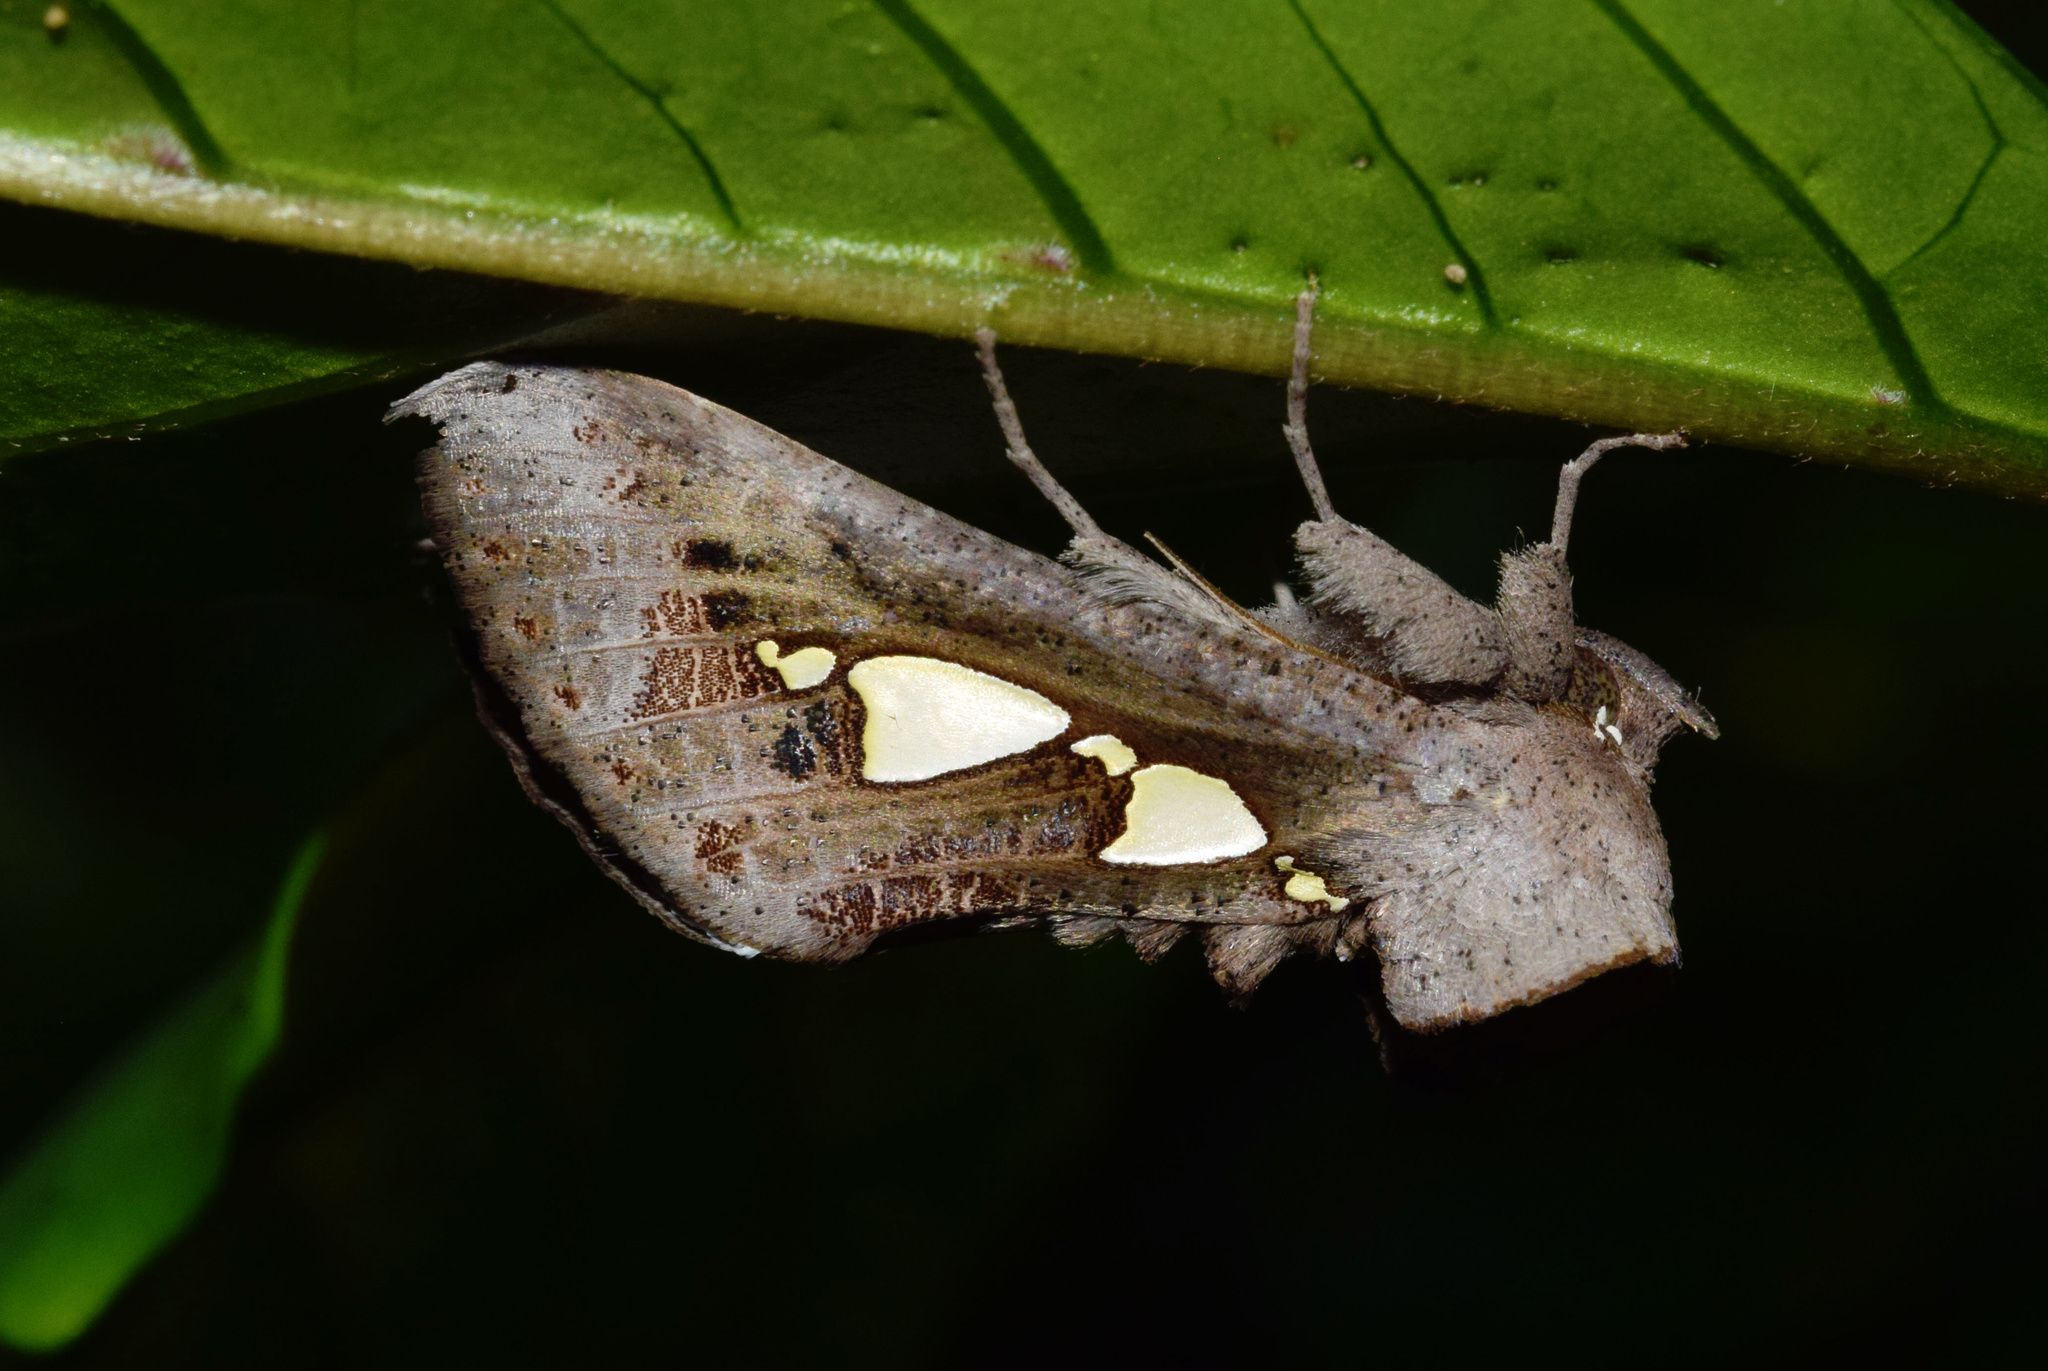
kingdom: Animalia
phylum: Arthropoda
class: Insecta
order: Lepidoptera
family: Erebidae
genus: Antiophlebia
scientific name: Antiophlebia bracteata
